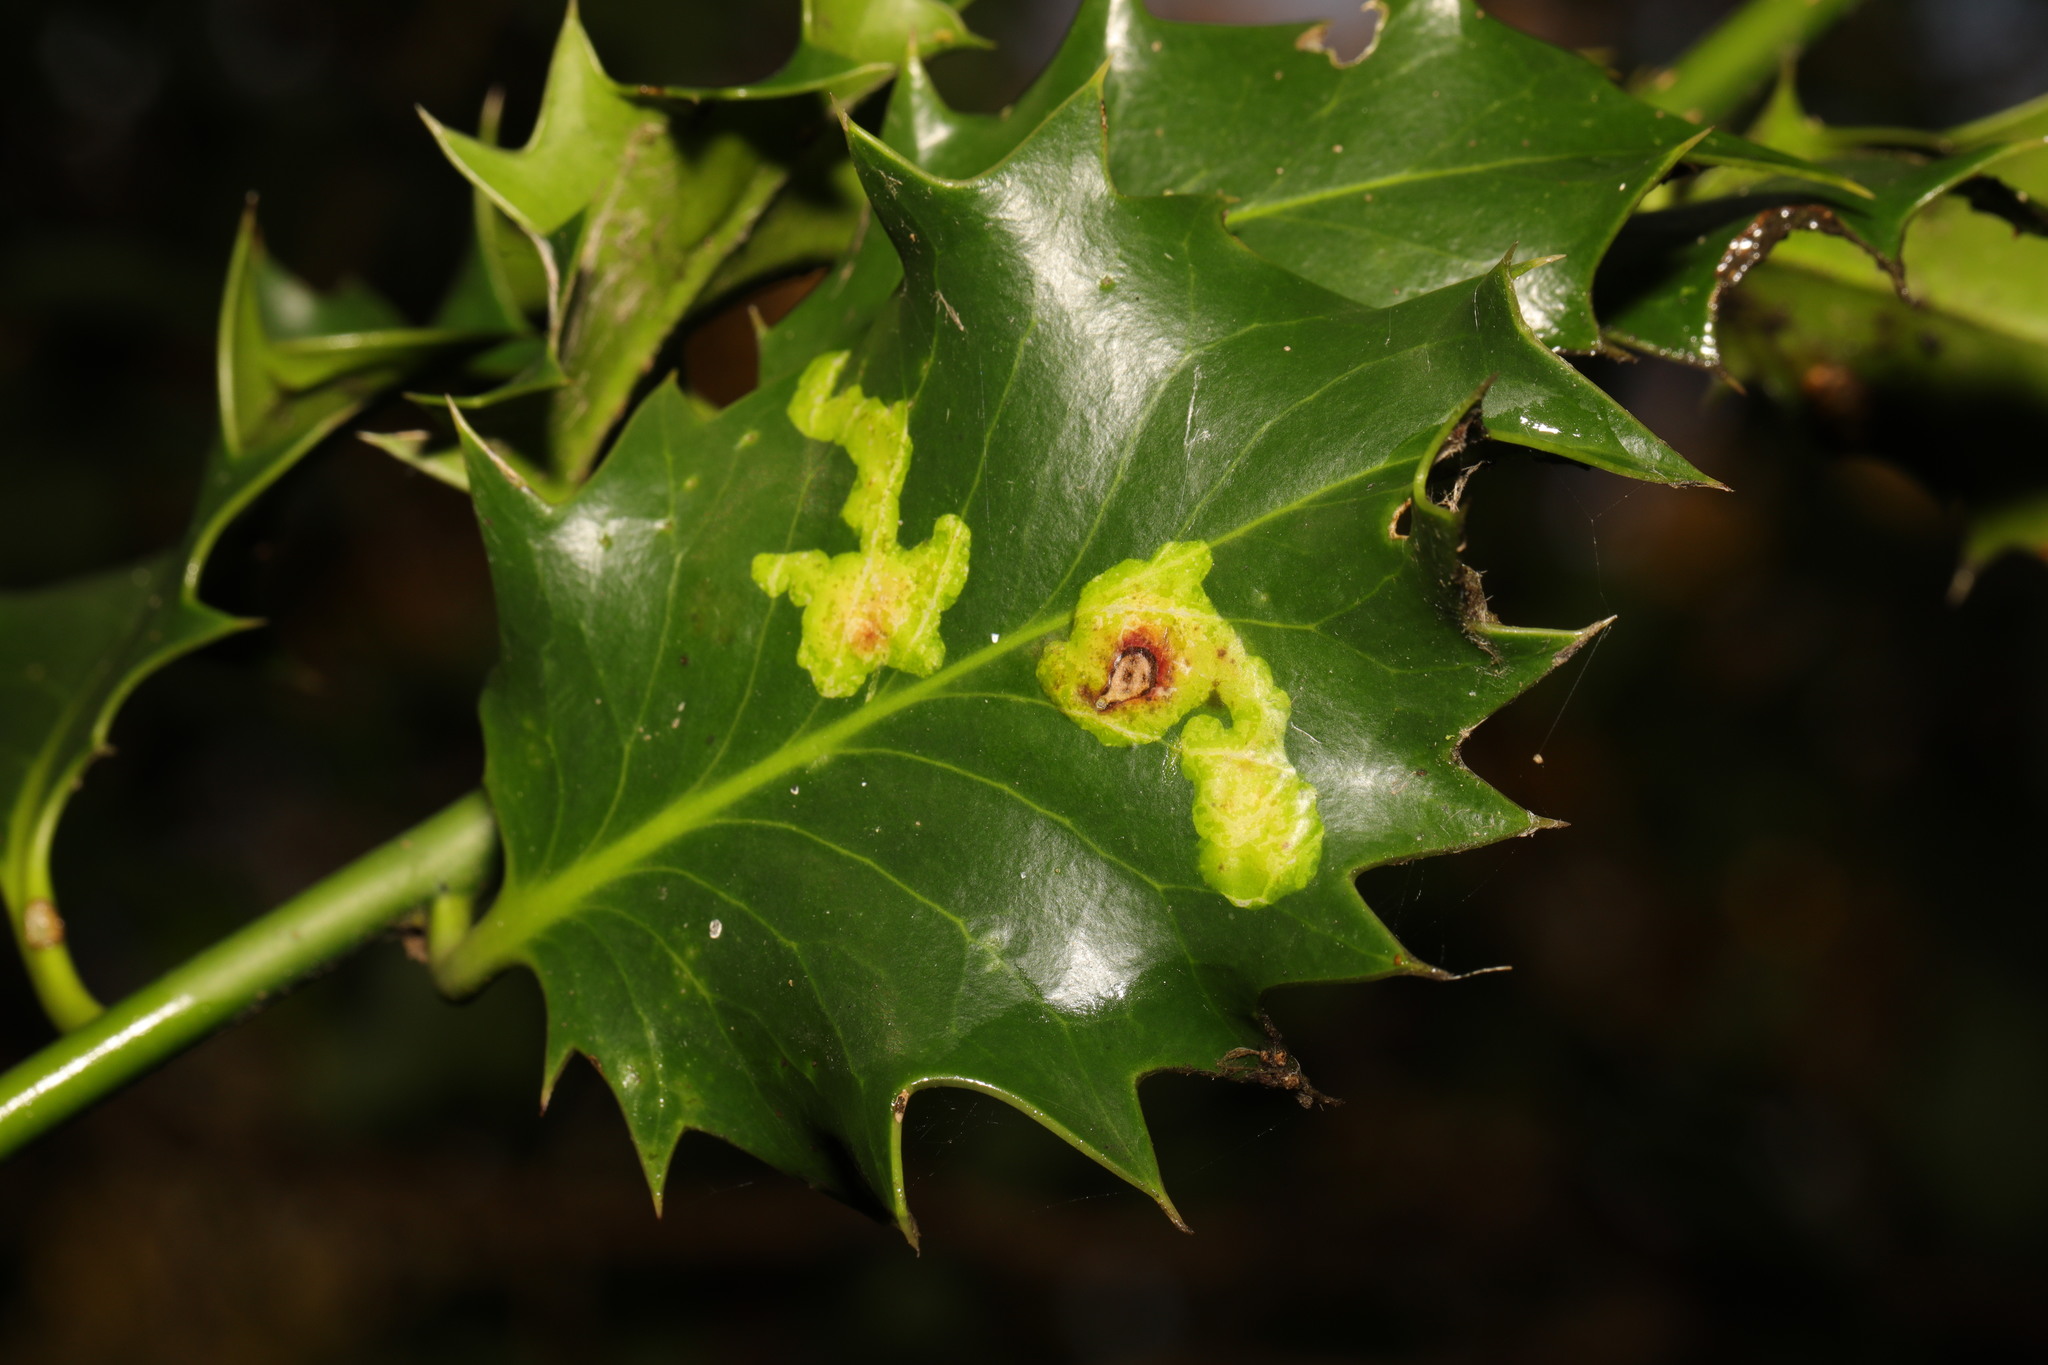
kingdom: Animalia
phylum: Arthropoda
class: Insecta
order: Diptera
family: Agromyzidae
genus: Phytomyza
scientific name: Phytomyza ilicis
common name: Holly leafminer
